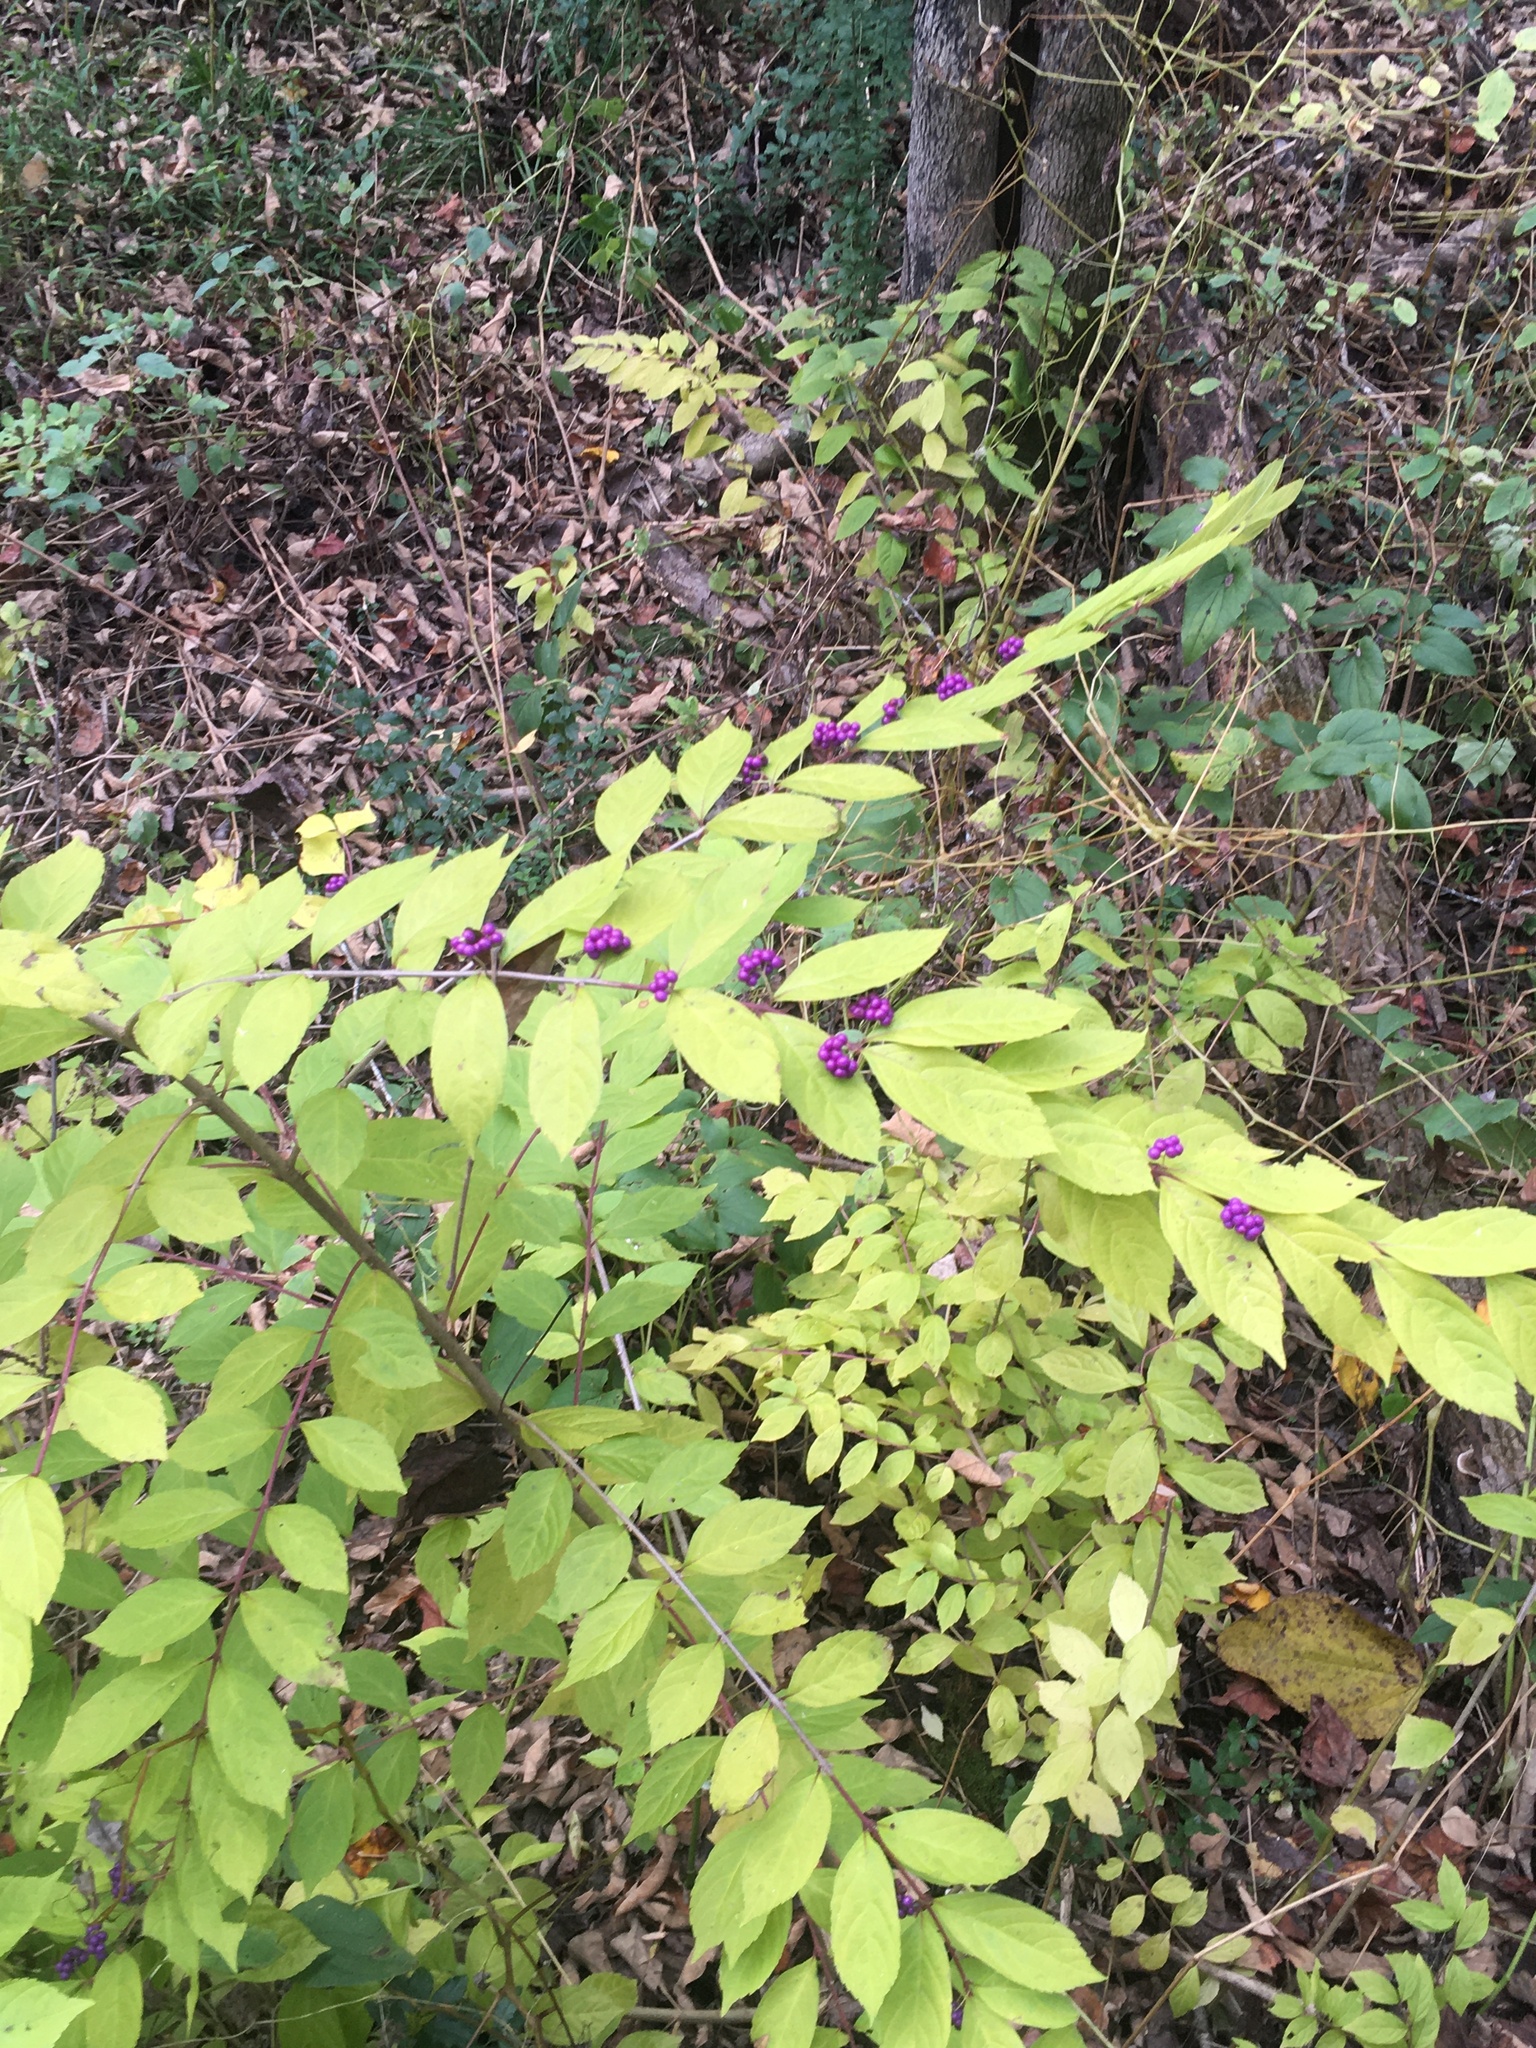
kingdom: Plantae
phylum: Tracheophyta
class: Magnoliopsida
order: Lamiales
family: Lamiaceae
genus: Callicarpa
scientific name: Callicarpa dichotoma
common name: Purple beauty-berry
